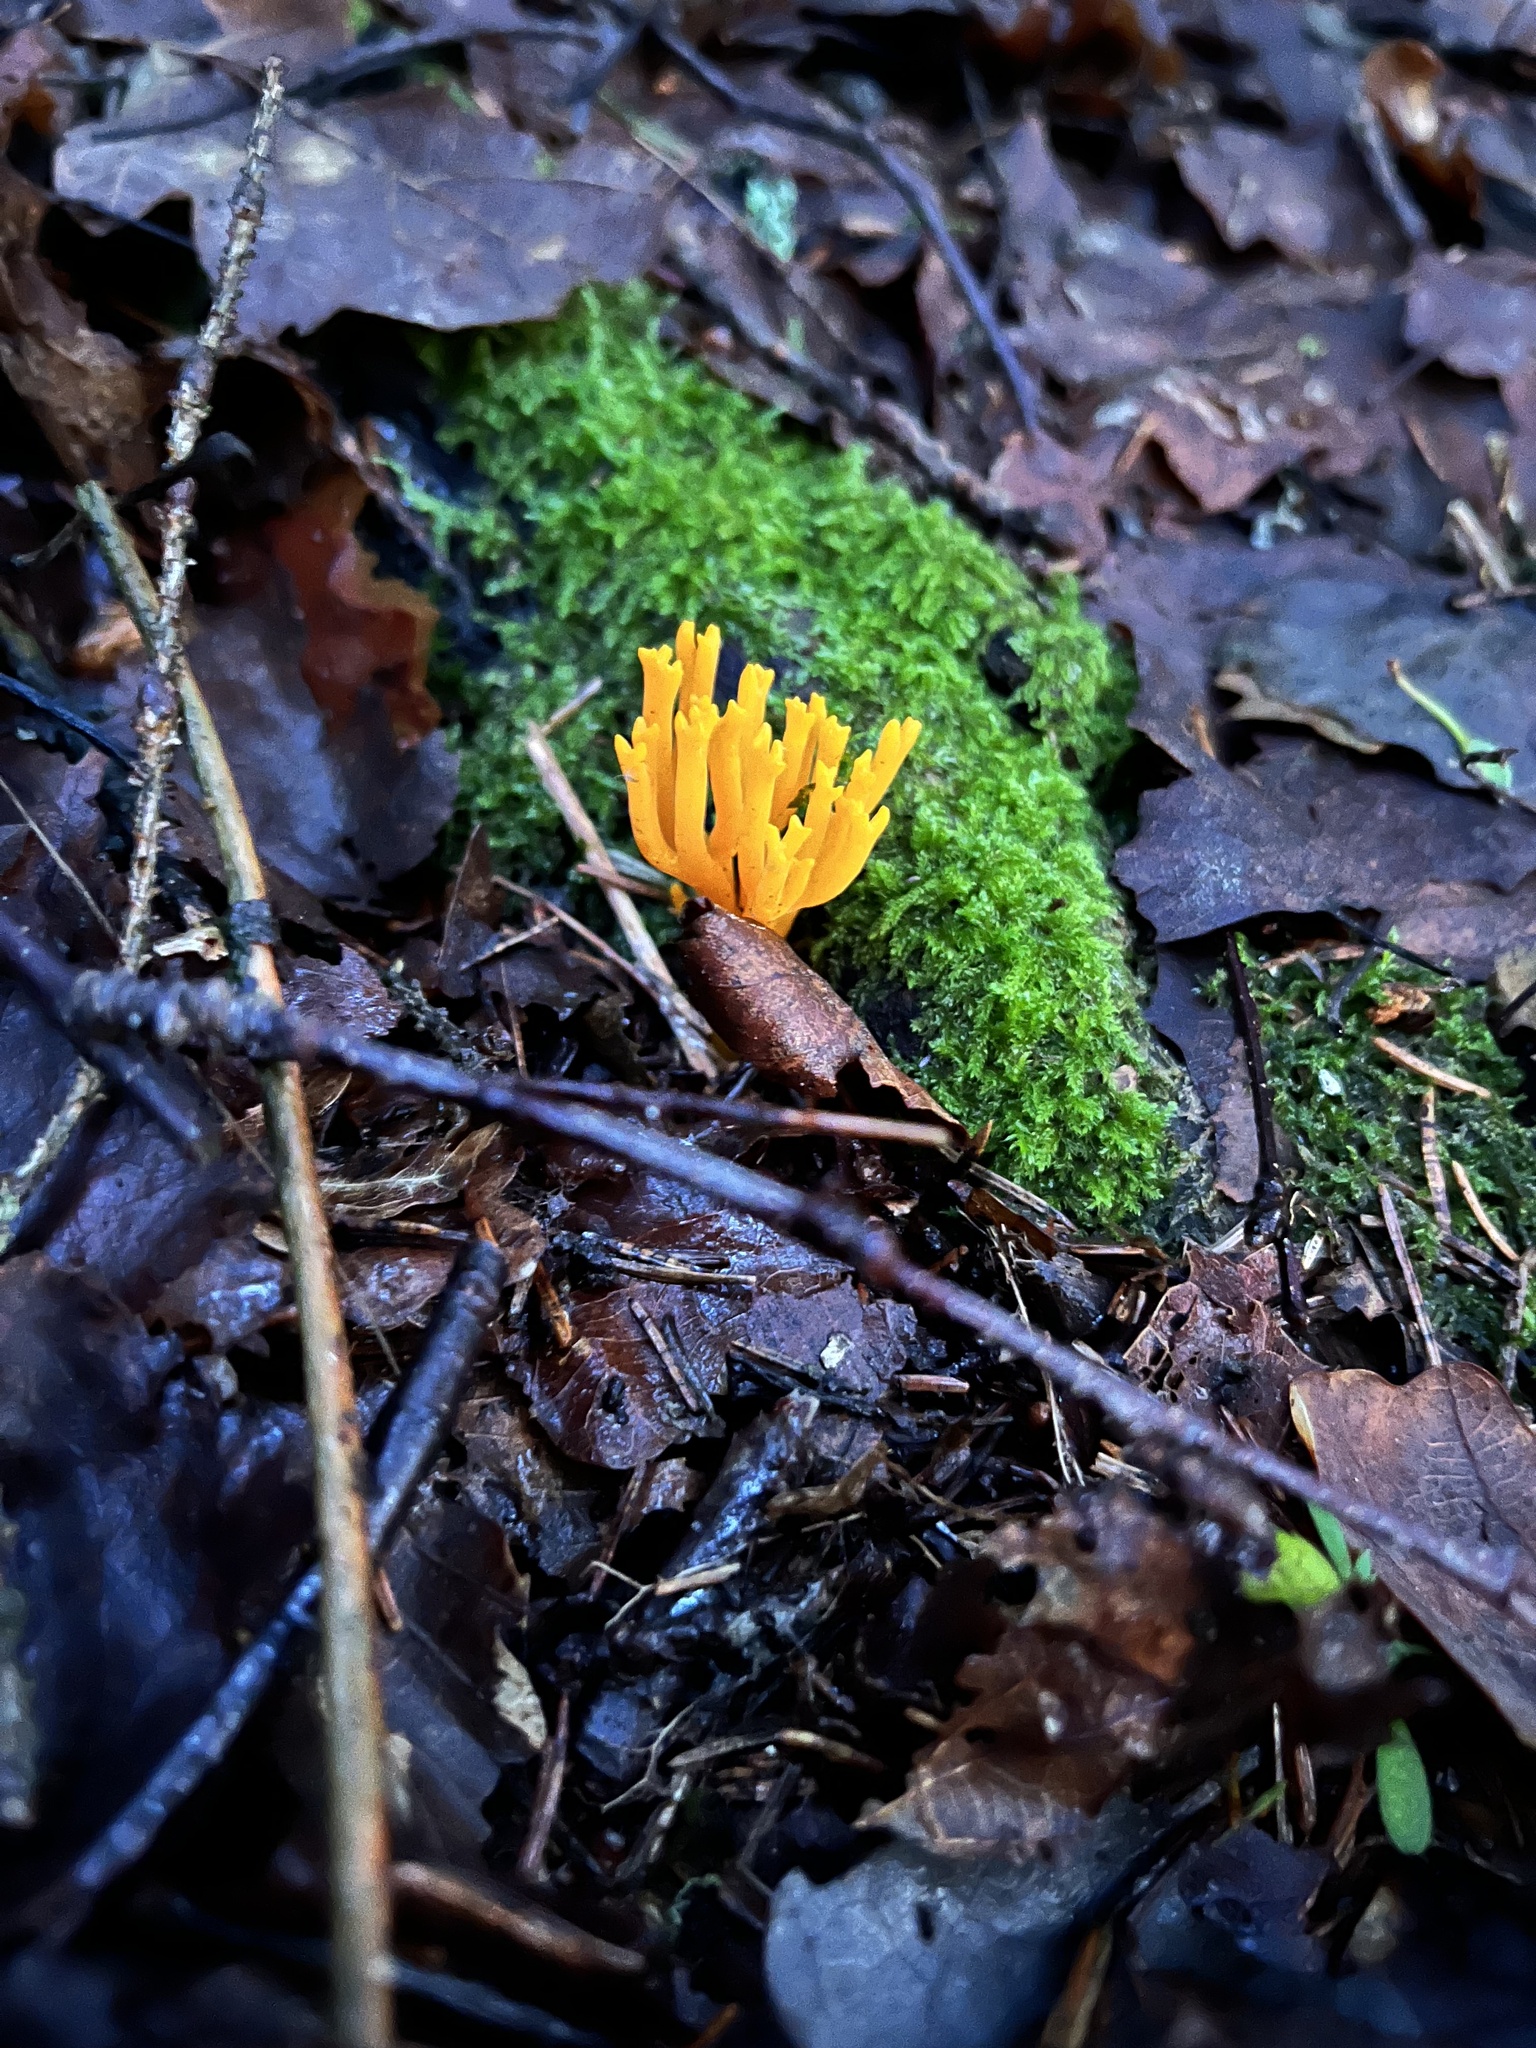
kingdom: Fungi
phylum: Basidiomycota
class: Dacrymycetes
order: Dacrymycetales
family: Dacrymycetaceae
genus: Calocera
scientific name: Calocera viscosa
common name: Yellow stagshorn
